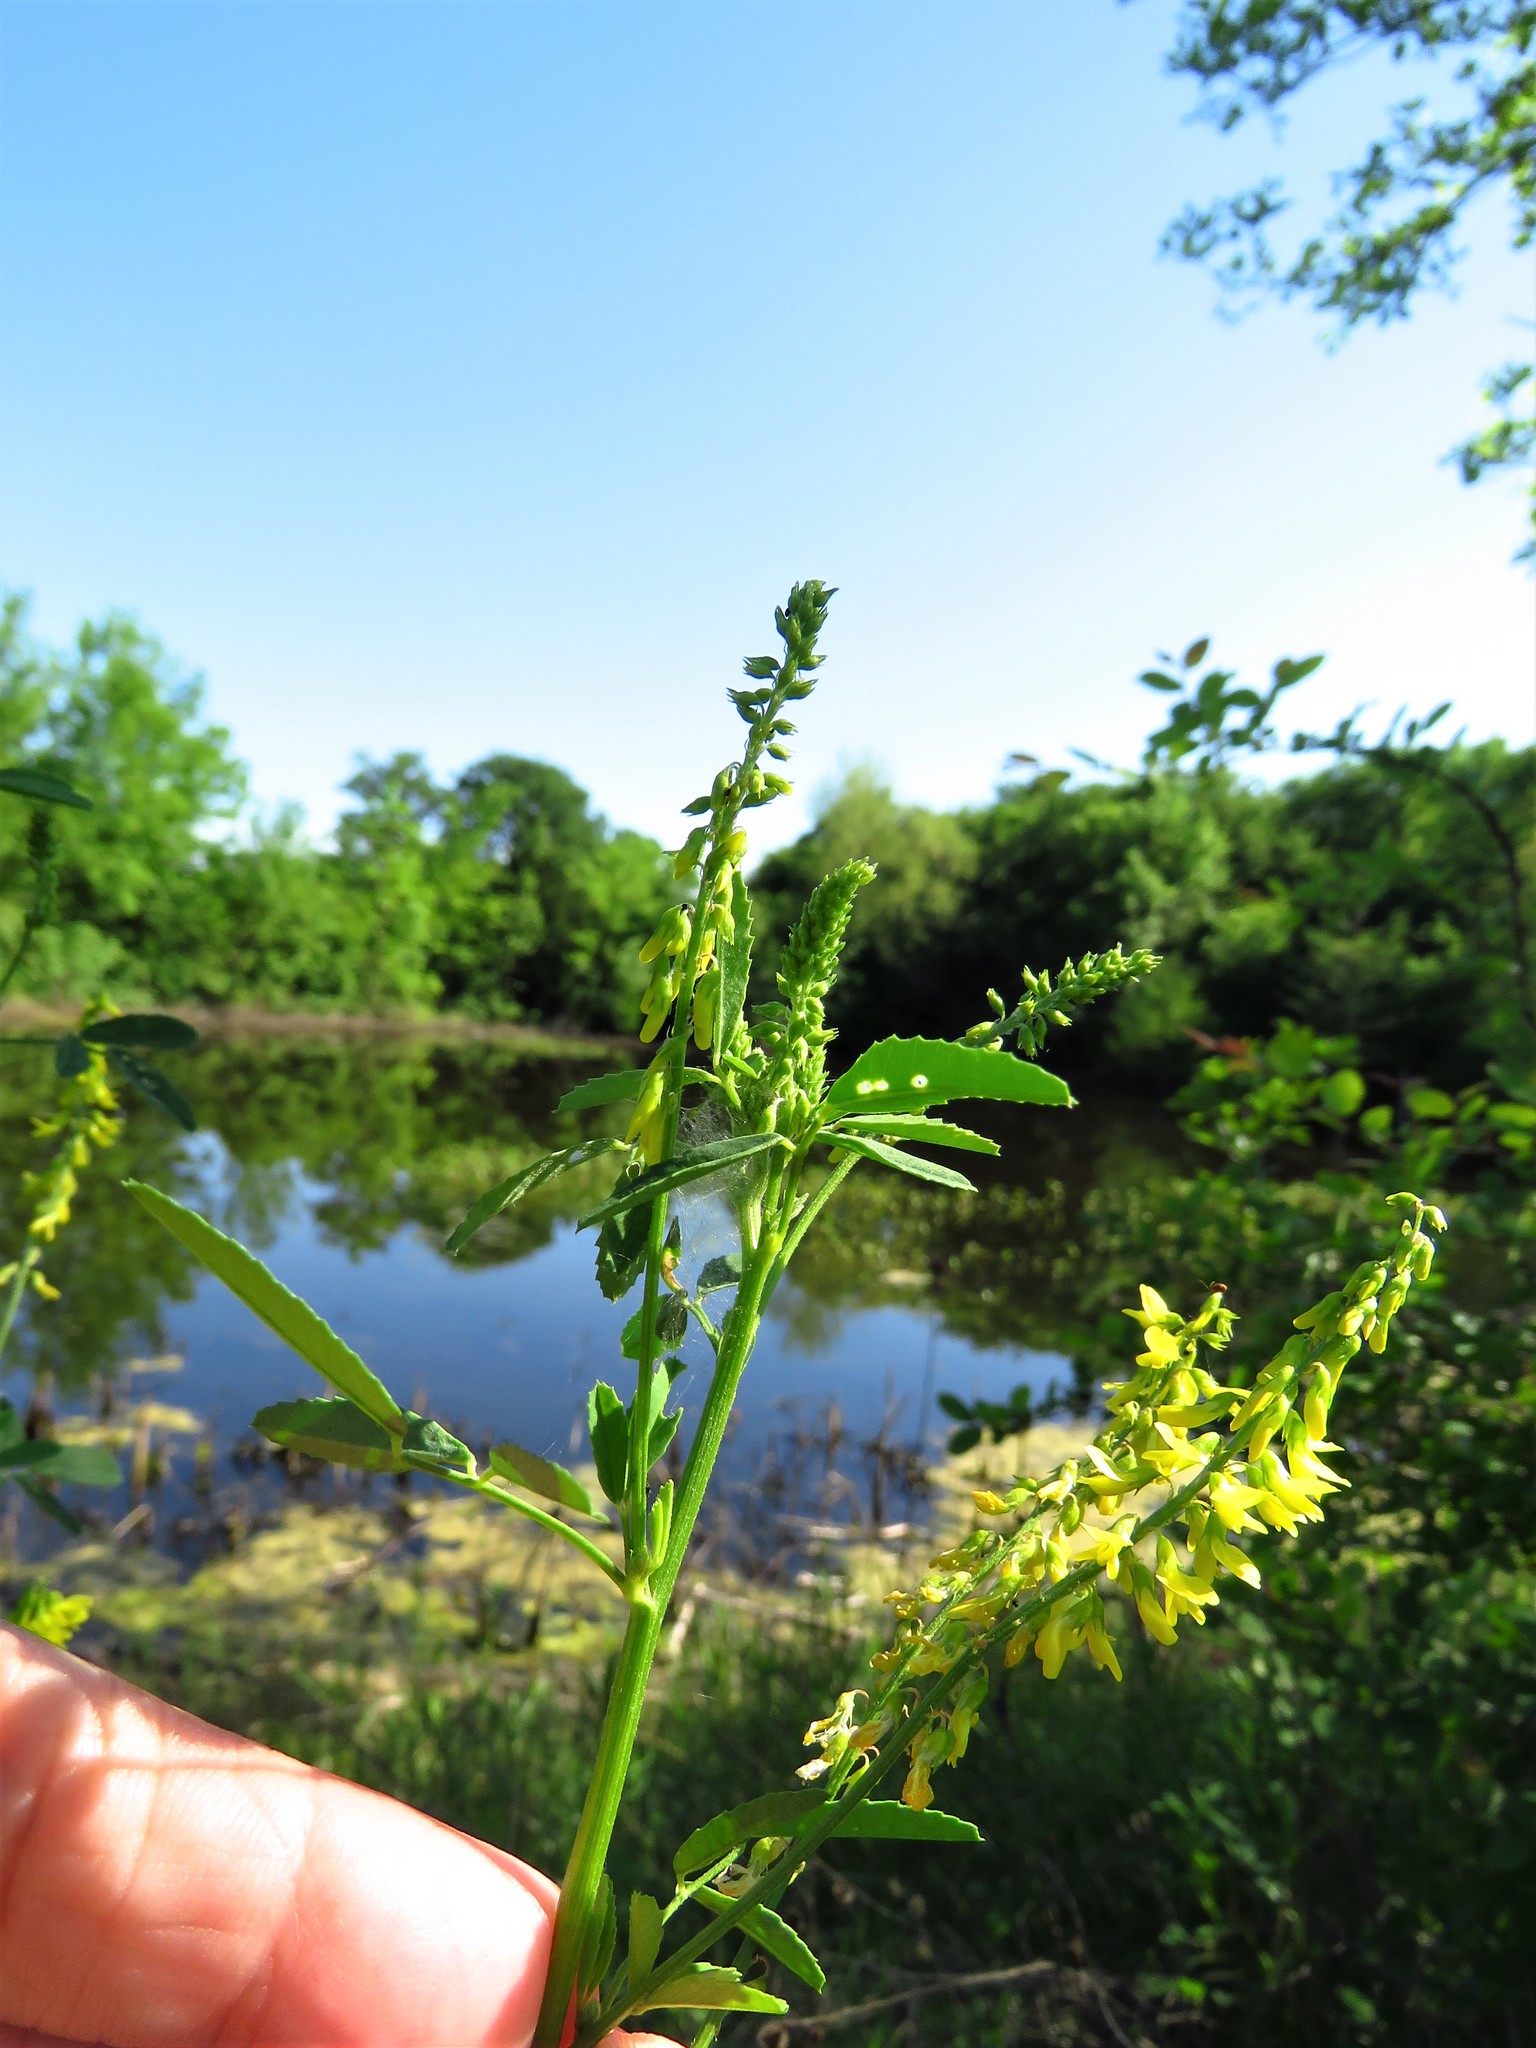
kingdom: Plantae
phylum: Tracheophyta
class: Magnoliopsida
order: Fabales
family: Fabaceae
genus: Melilotus
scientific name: Melilotus officinalis
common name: Sweetclover
